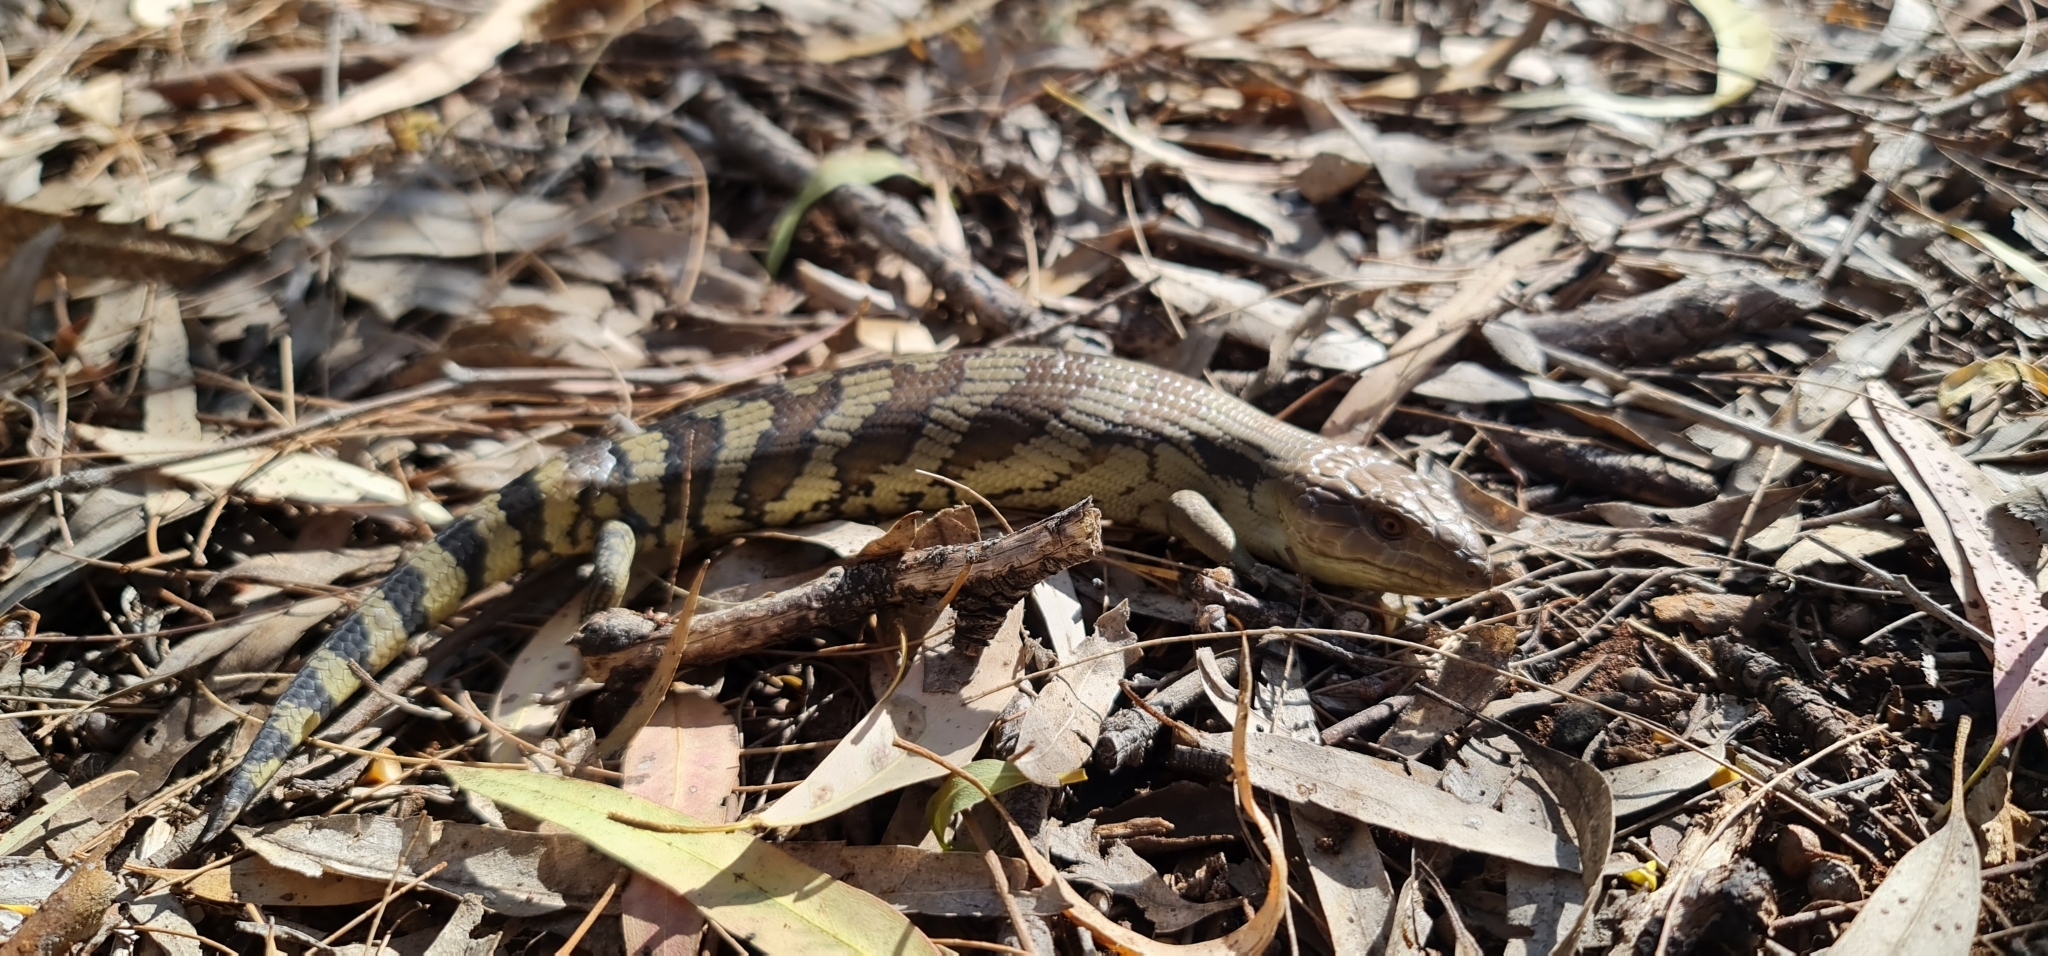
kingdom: Animalia
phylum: Chordata
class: Squamata
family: Scincidae
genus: Tiliqua
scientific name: Tiliqua scincoides
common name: Common bluetongue
